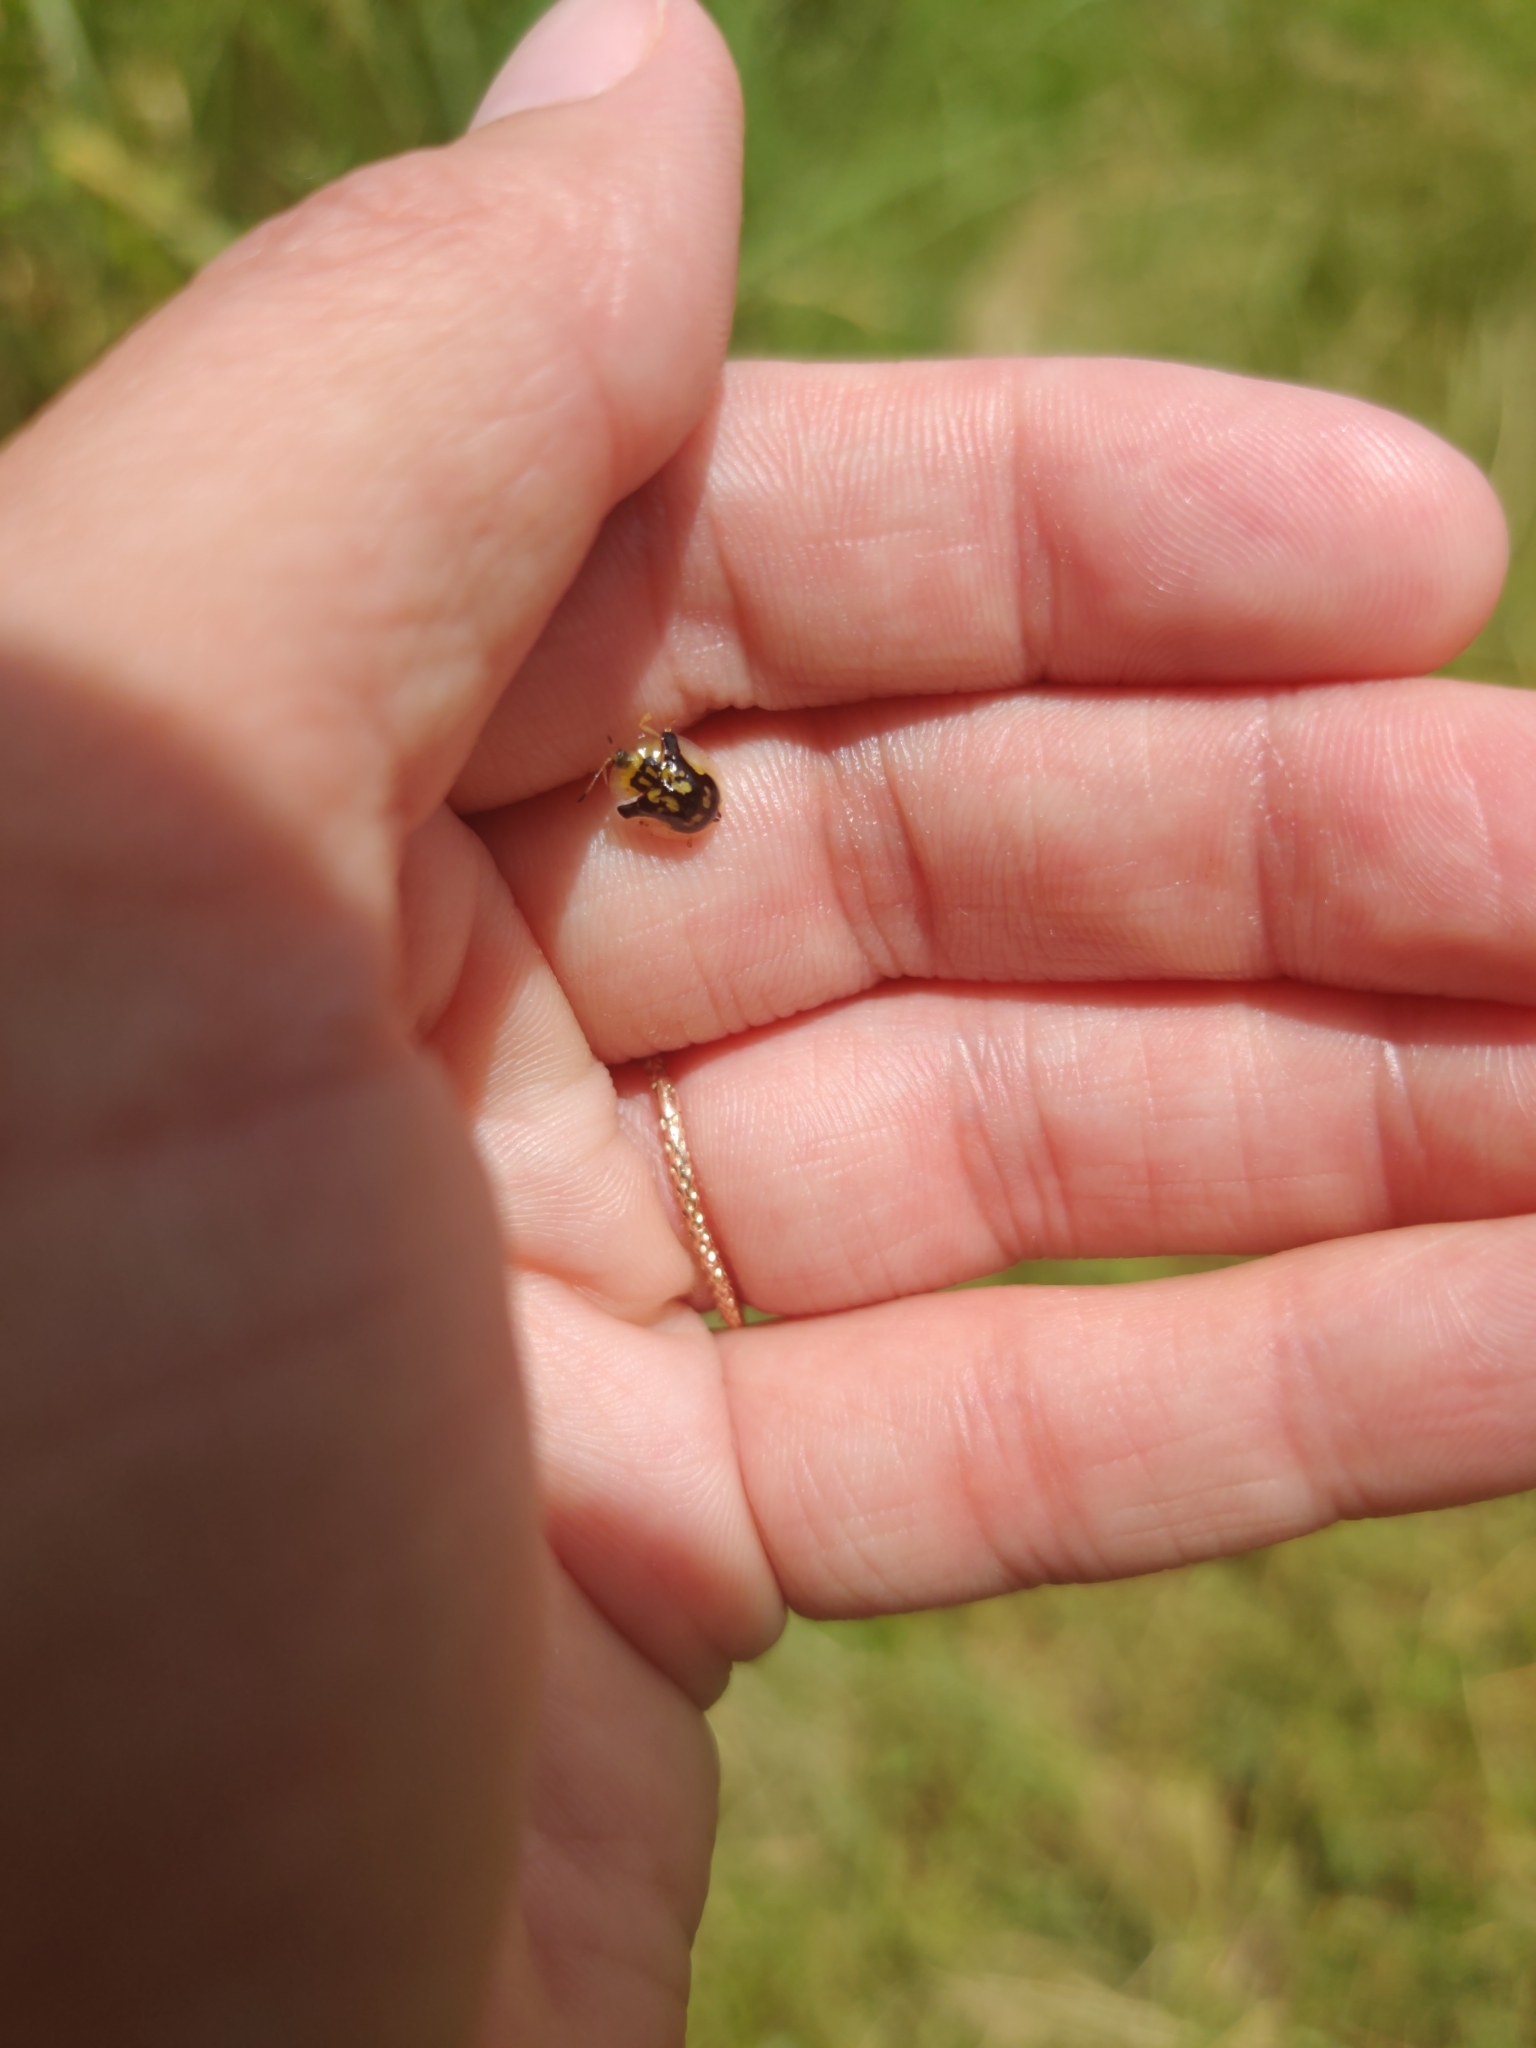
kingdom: Animalia
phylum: Arthropoda
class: Insecta
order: Coleoptera
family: Chrysomelidae
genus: Deloyala
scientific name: Deloyala guttata
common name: Mottled tortoise beetle
